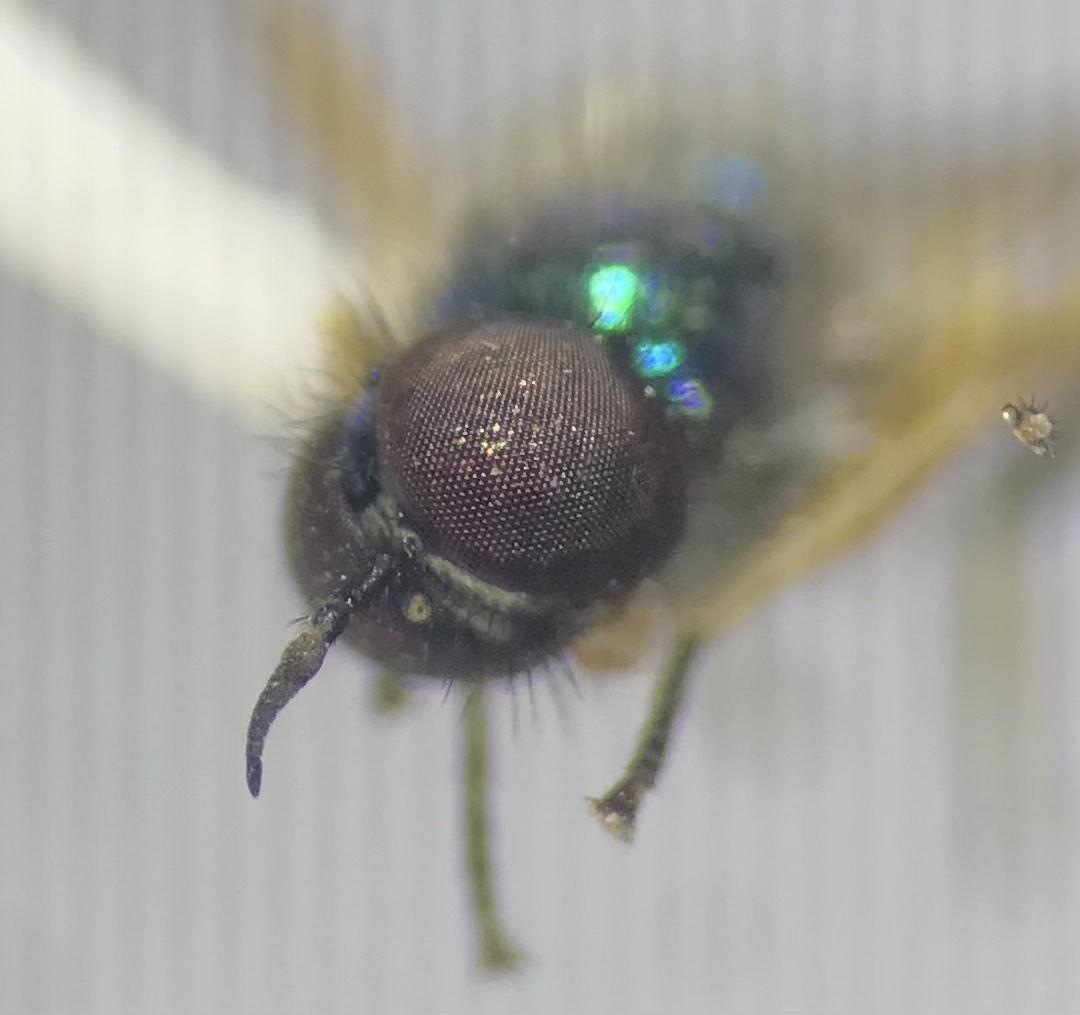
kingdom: Animalia
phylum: Arthropoda
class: Insecta
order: Diptera
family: Stratiomyidae
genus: Actina
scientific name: Actina viridis
